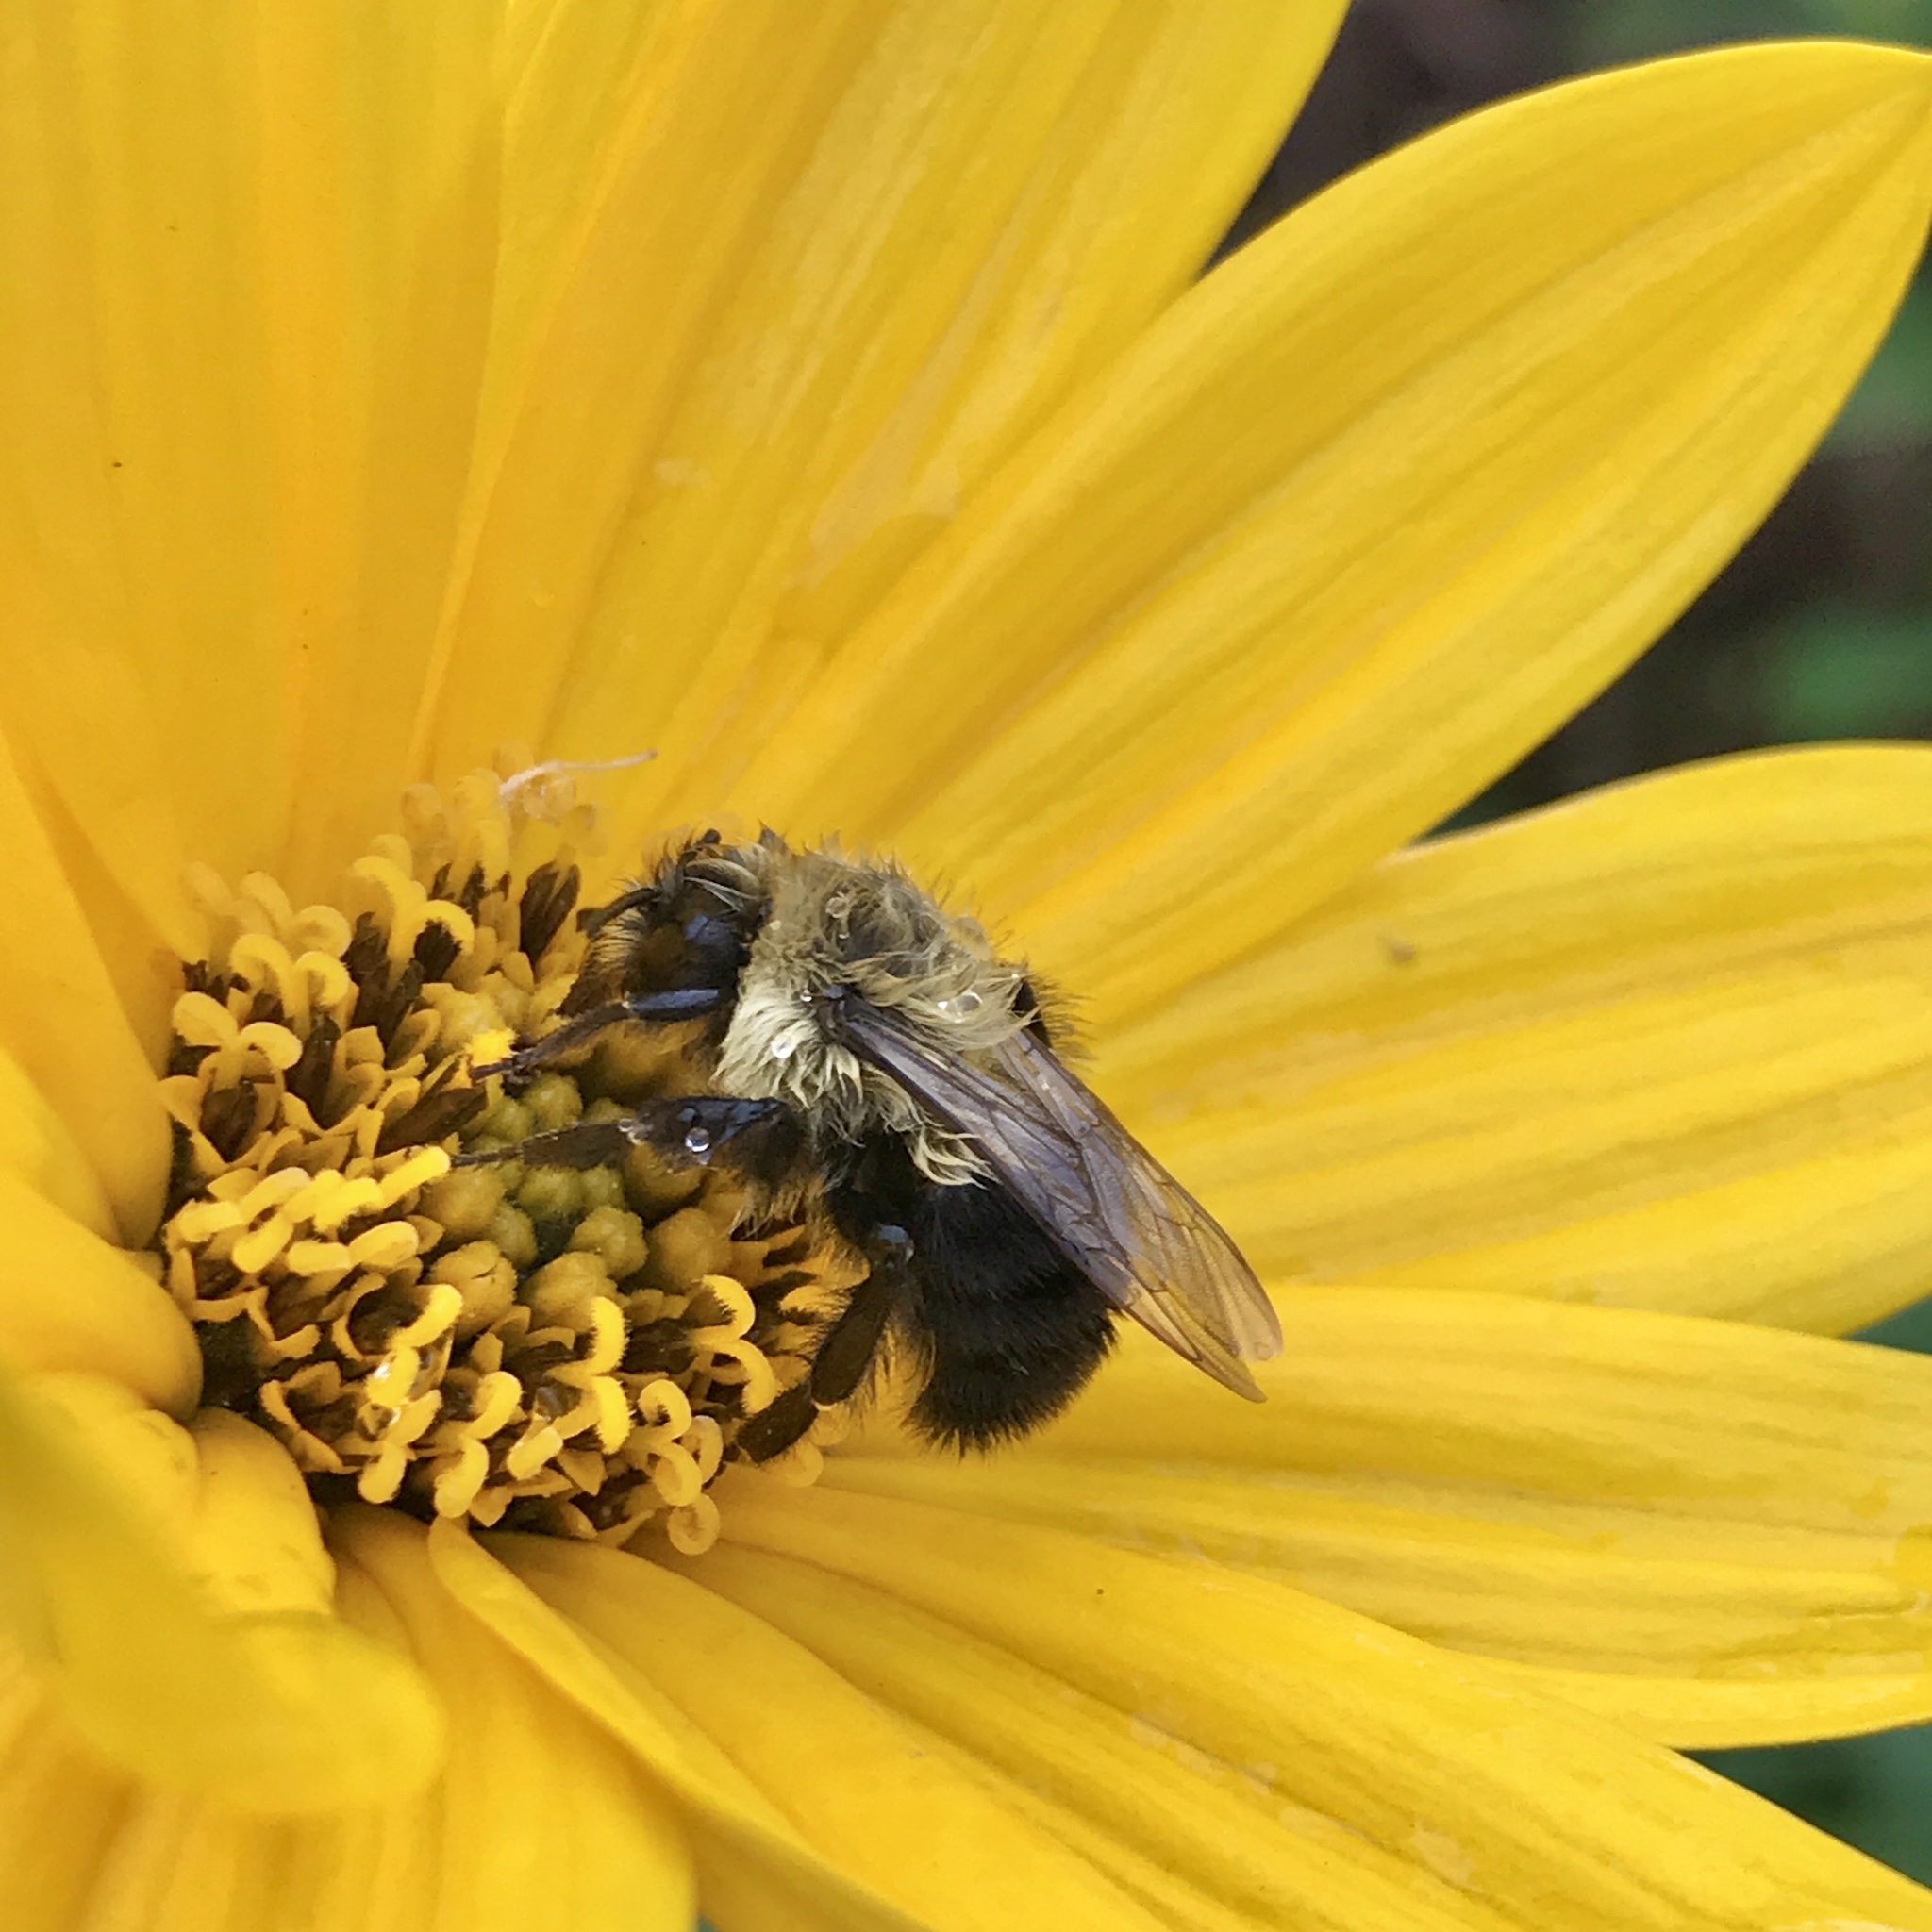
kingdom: Animalia
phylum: Arthropoda
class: Insecta
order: Hymenoptera
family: Apidae
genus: Bombus
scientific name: Bombus impatiens
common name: Common eastern bumble bee
